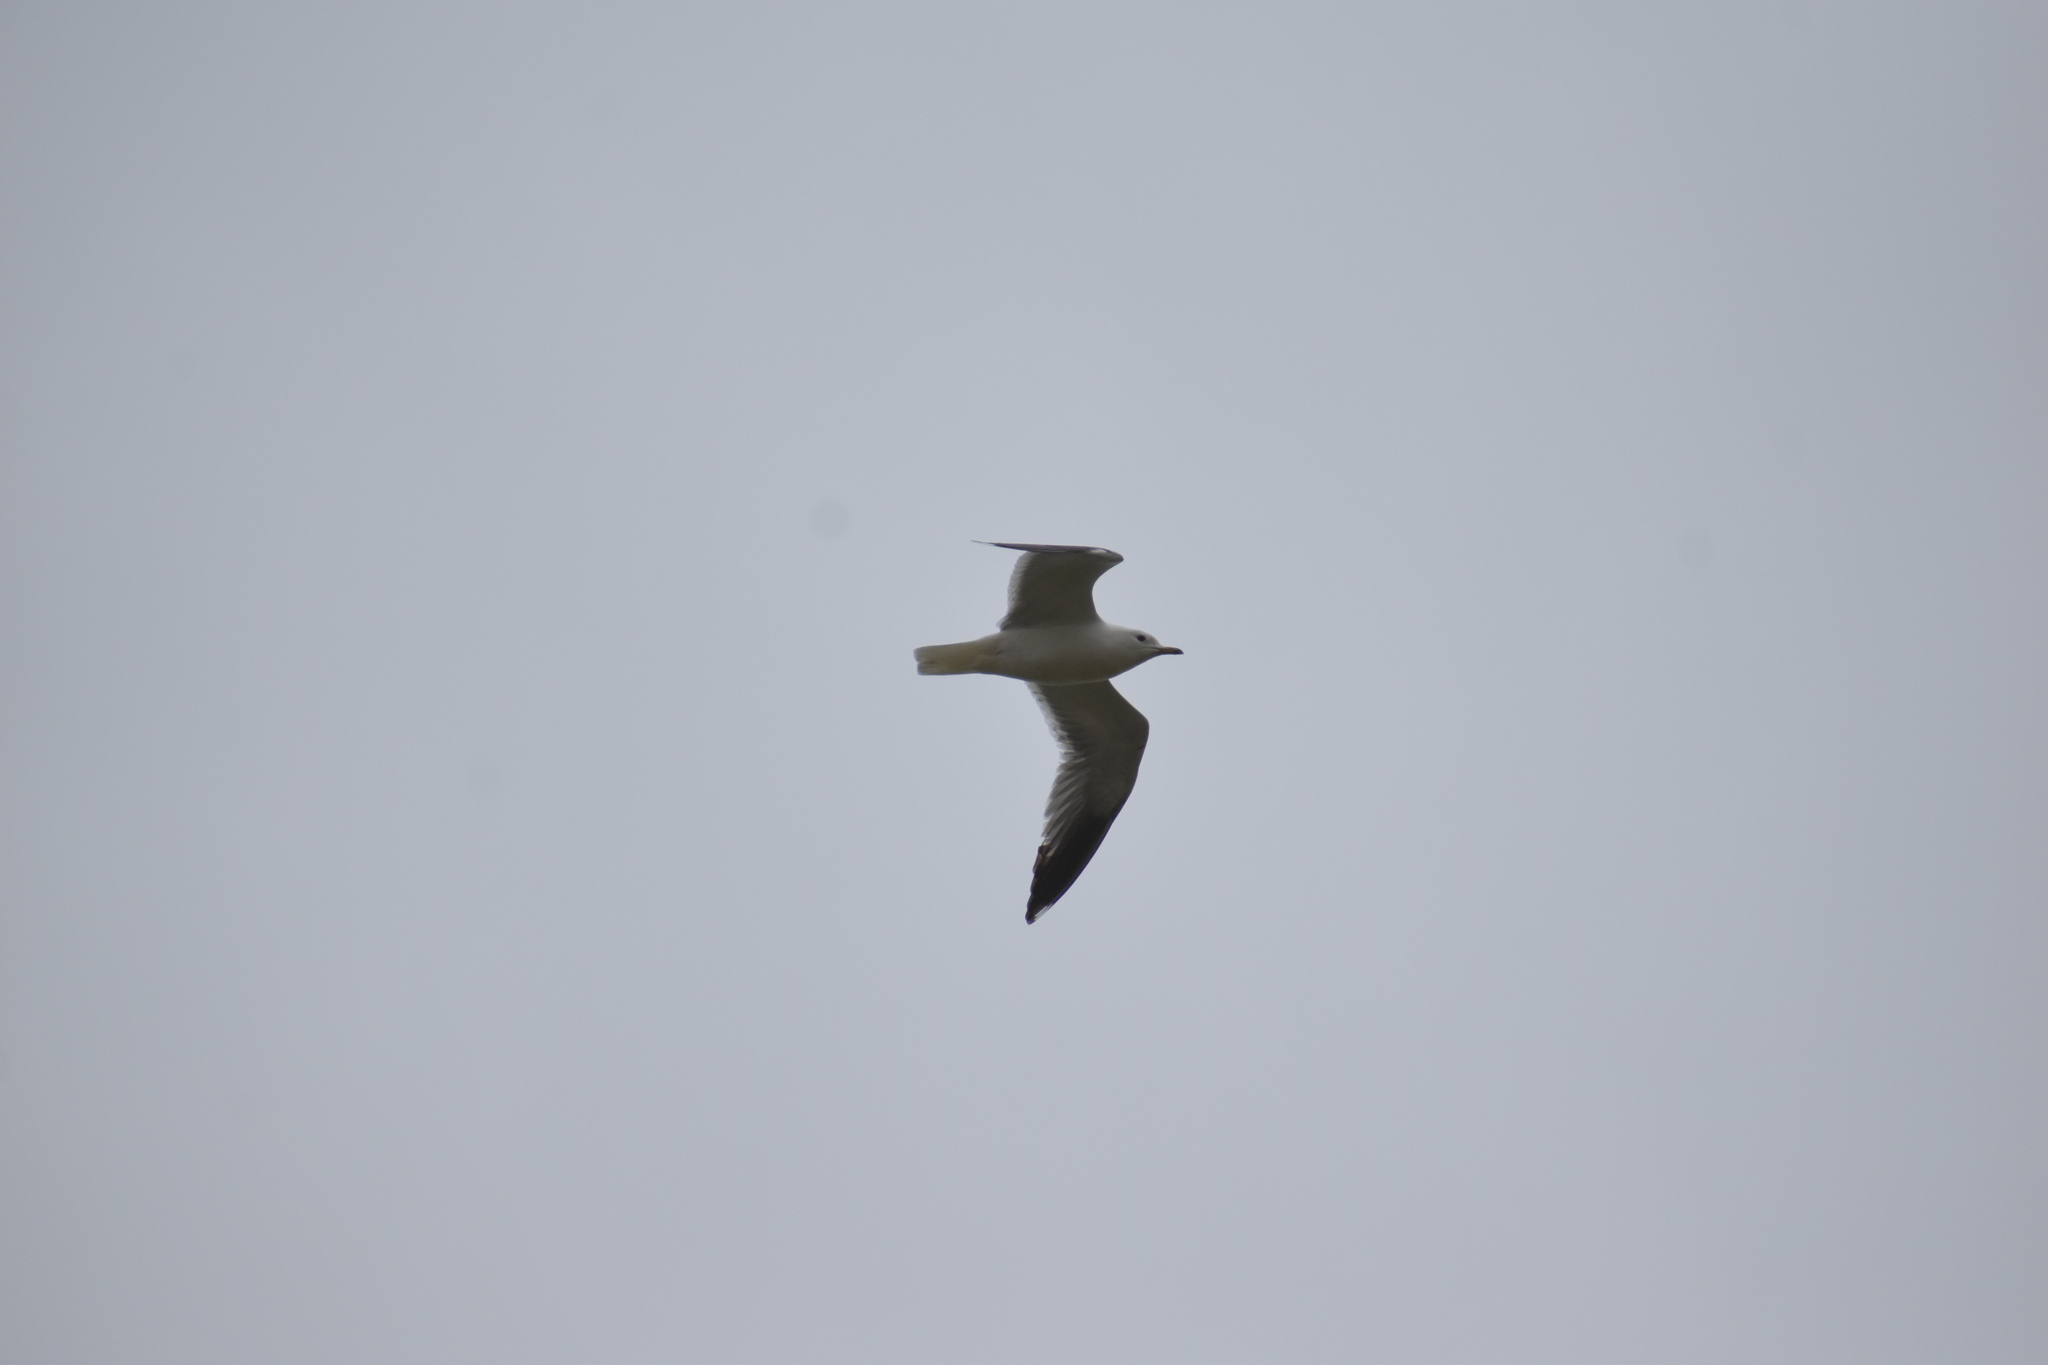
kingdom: Animalia
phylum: Chordata
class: Aves
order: Charadriiformes
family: Laridae
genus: Larus
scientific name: Larus canus
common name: Mew gull
